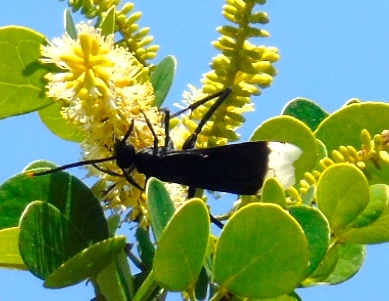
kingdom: Animalia
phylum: Arthropoda
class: Insecta
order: Hymenoptera
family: Pompilidae
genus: Pepsis
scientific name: Pepsis
